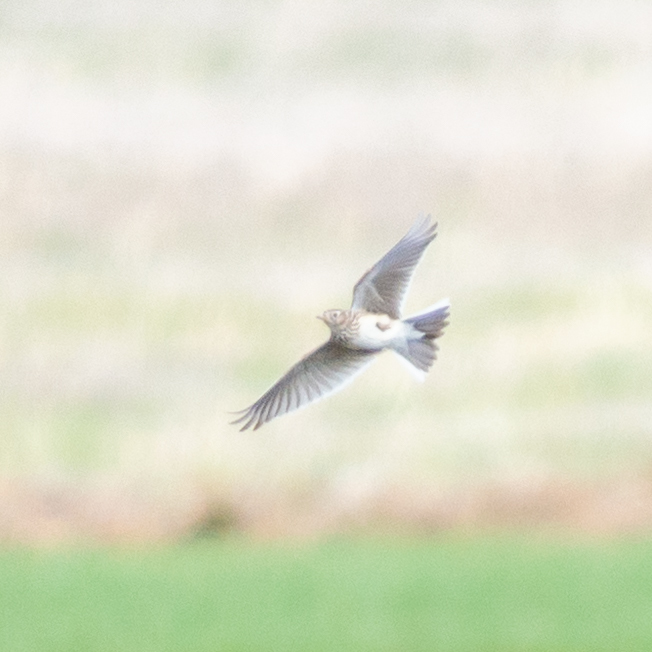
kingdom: Animalia
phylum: Chordata
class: Aves
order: Passeriformes
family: Alaudidae
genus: Alauda
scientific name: Alauda arvensis
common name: Eurasian skylark
